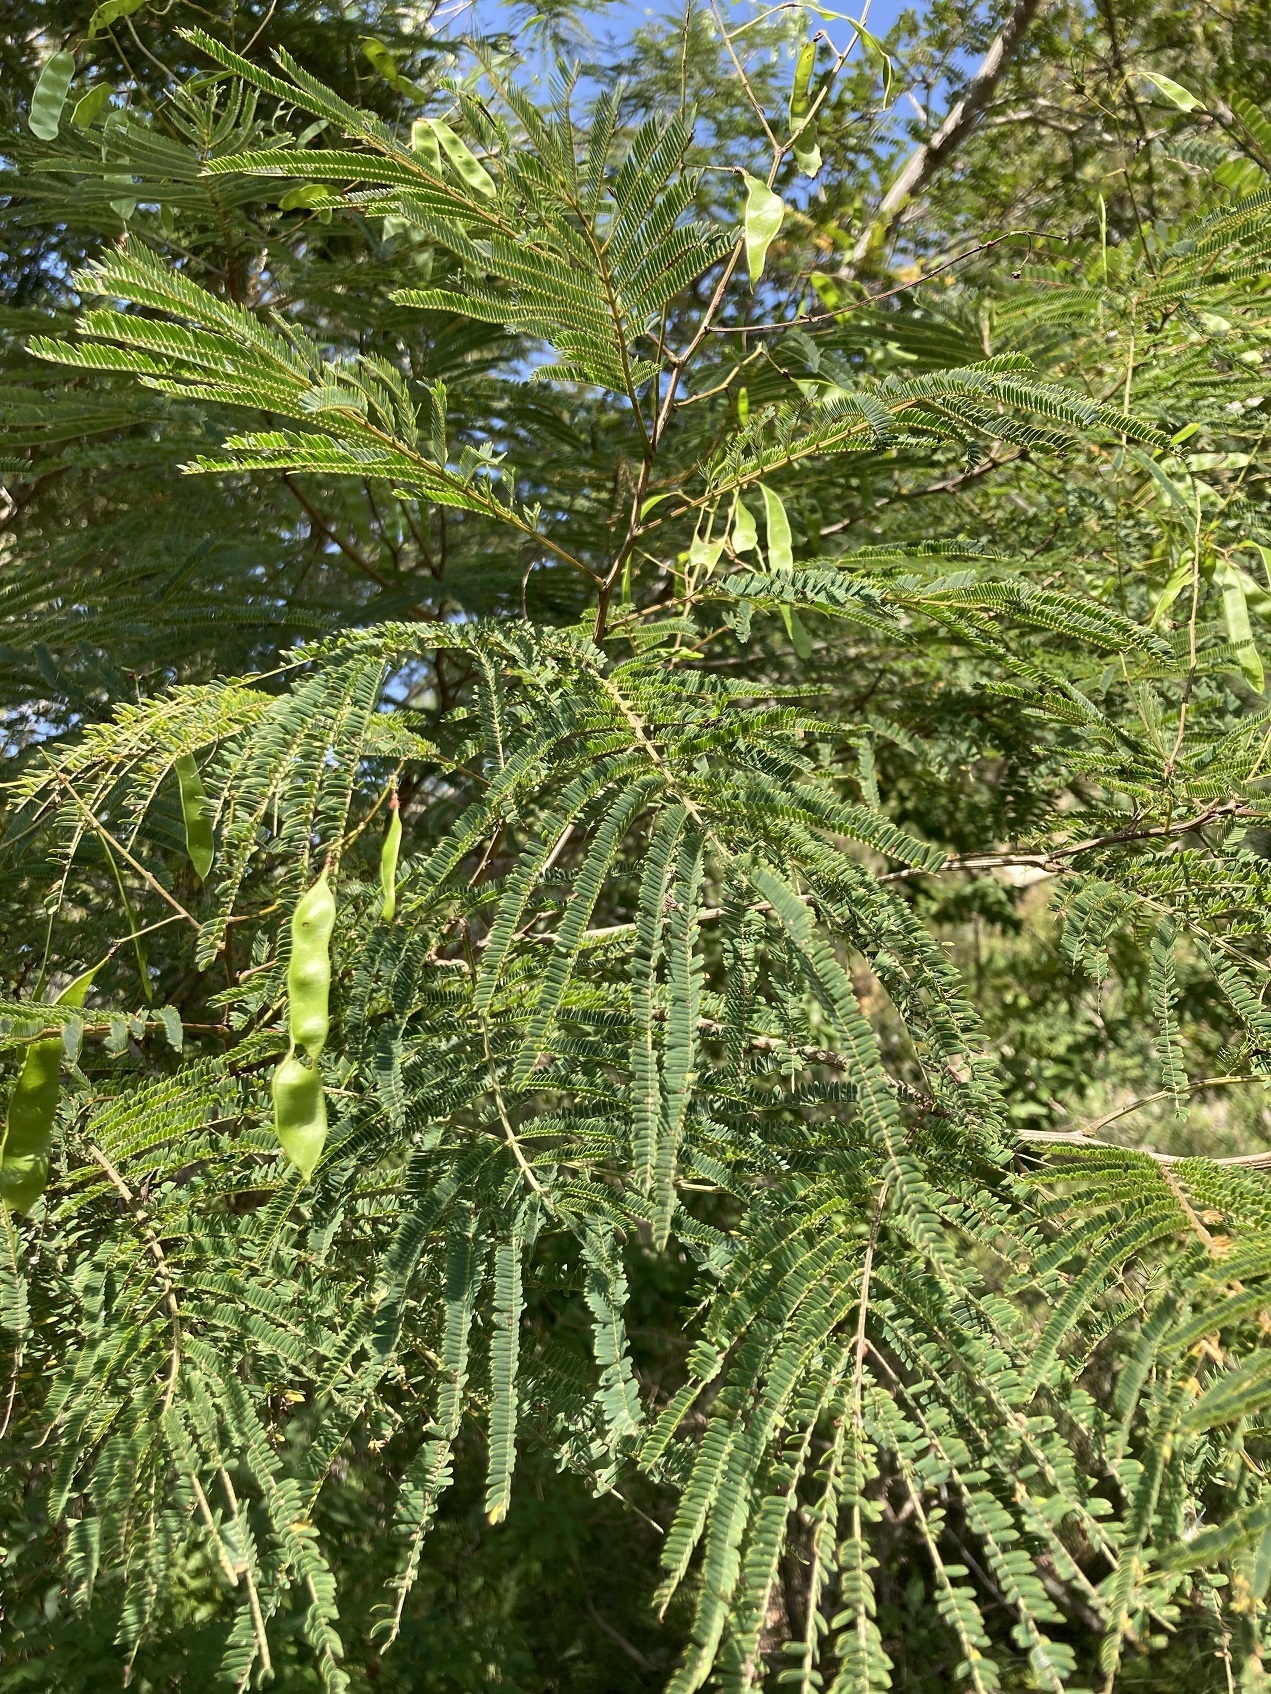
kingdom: Plantae
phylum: Tracheophyta
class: Magnoliopsida
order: Fabales
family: Fabaceae
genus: Acaciella
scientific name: Acaciella angustissima
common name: Prairie acacia
